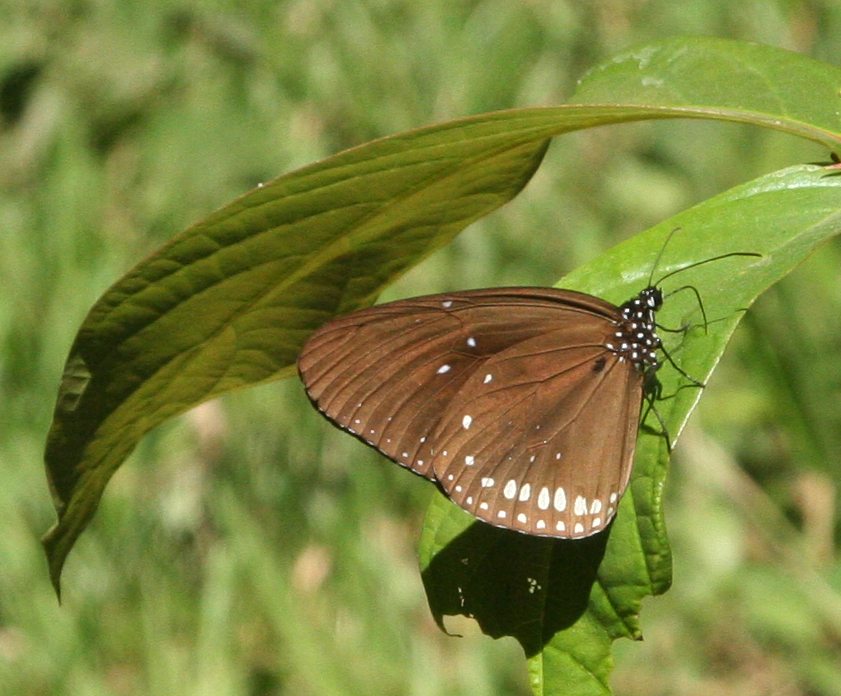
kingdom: Animalia
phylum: Arthropoda
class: Insecta
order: Lepidoptera
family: Nymphalidae
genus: Euploea
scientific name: Euploea sylvester
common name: Double-branded crow butterfly
